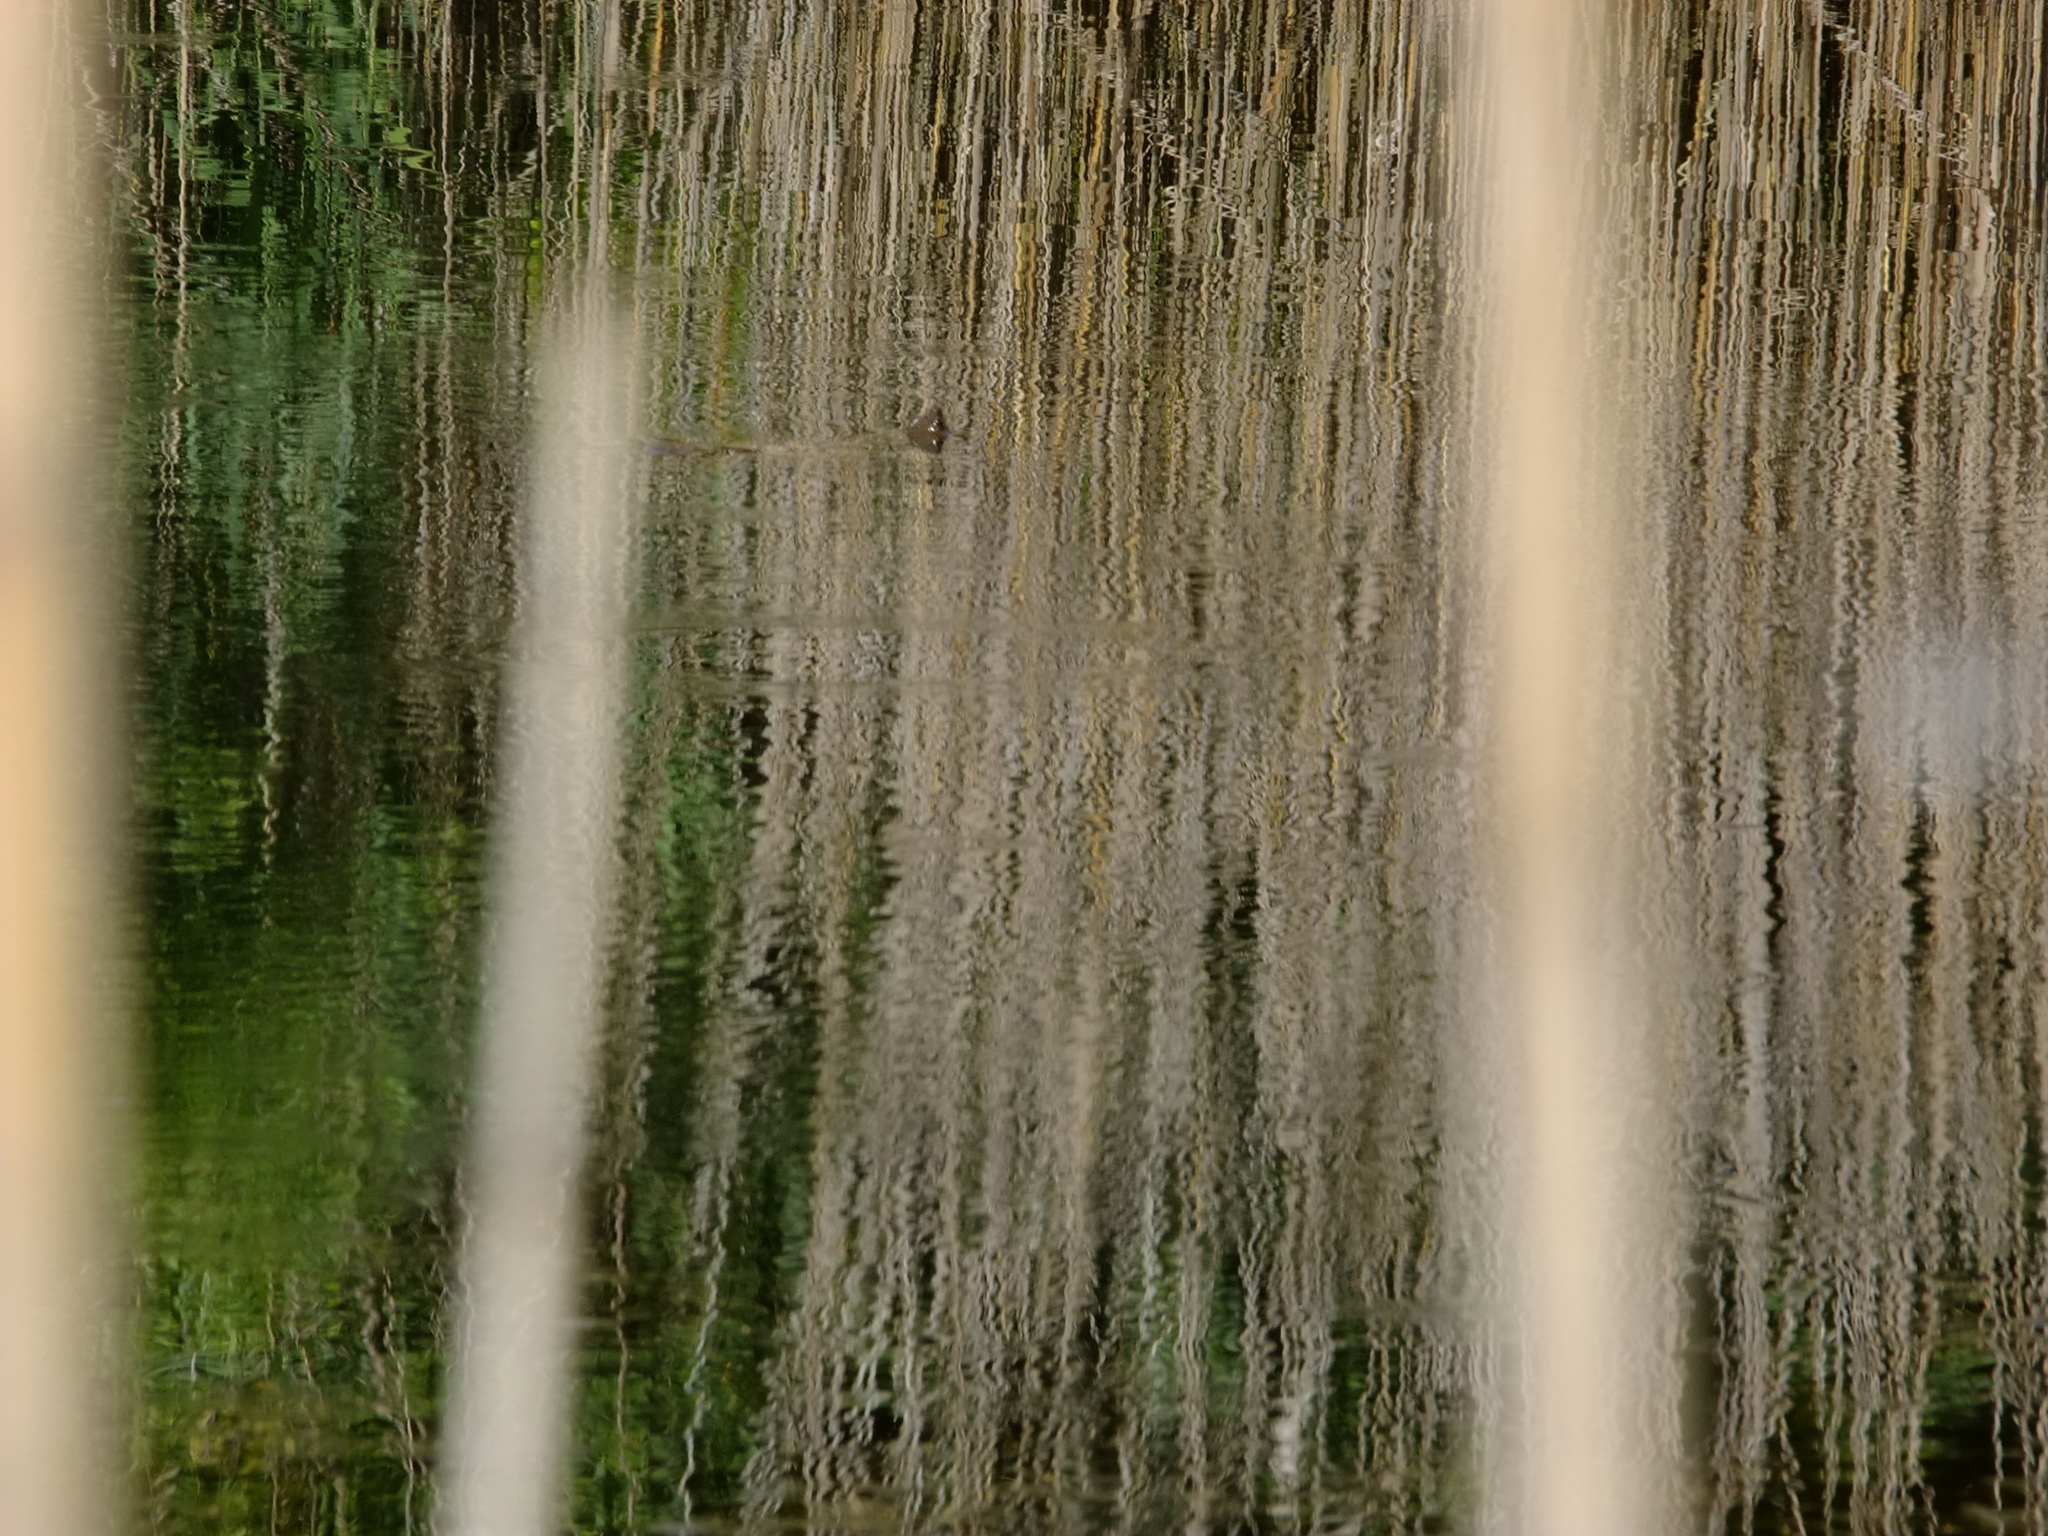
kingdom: Animalia
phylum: Chordata
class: Testudines
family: Chelydridae
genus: Chelydra
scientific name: Chelydra serpentina
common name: Common snapping turtle
